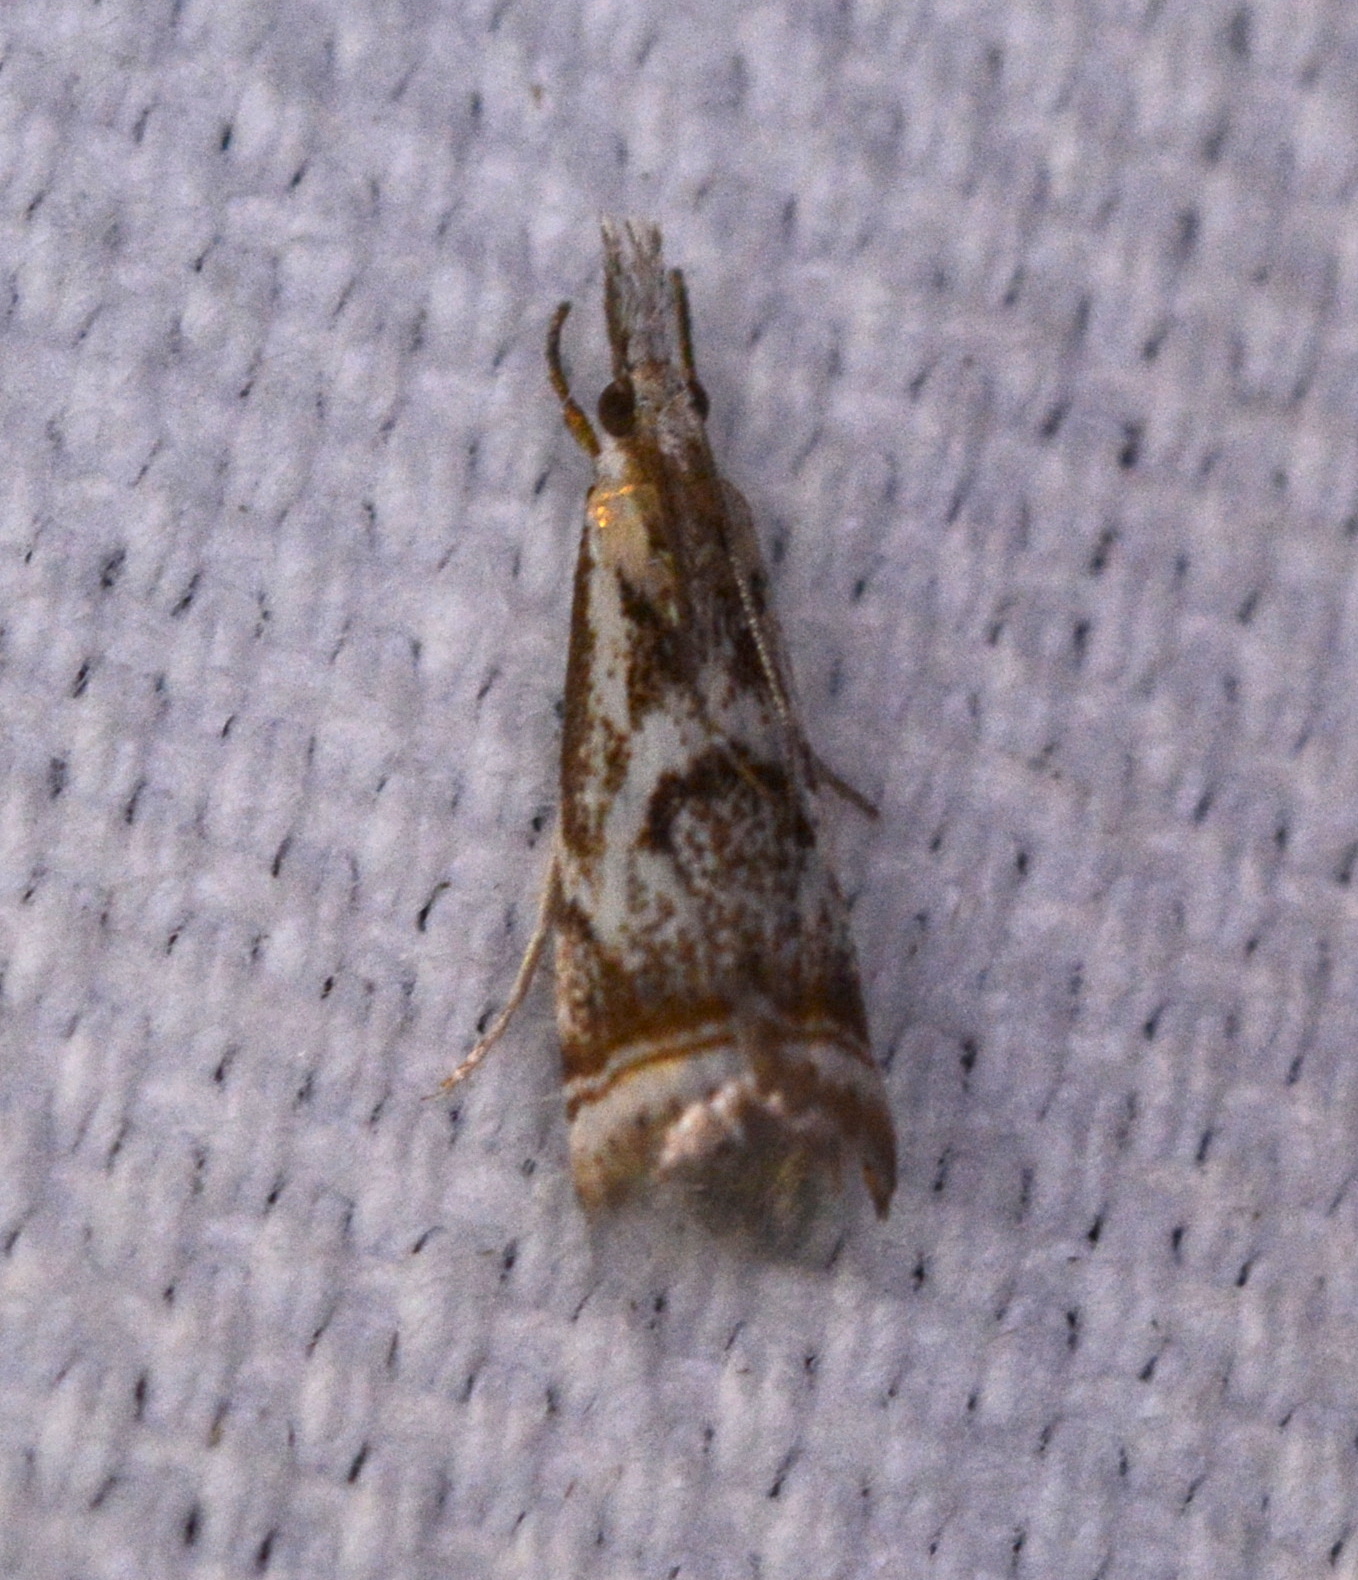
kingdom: Animalia
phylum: Arthropoda
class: Insecta
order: Lepidoptera
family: Crambidae
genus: Microcrambus
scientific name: Microcrambus elegans
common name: Elegant grass-veneer
